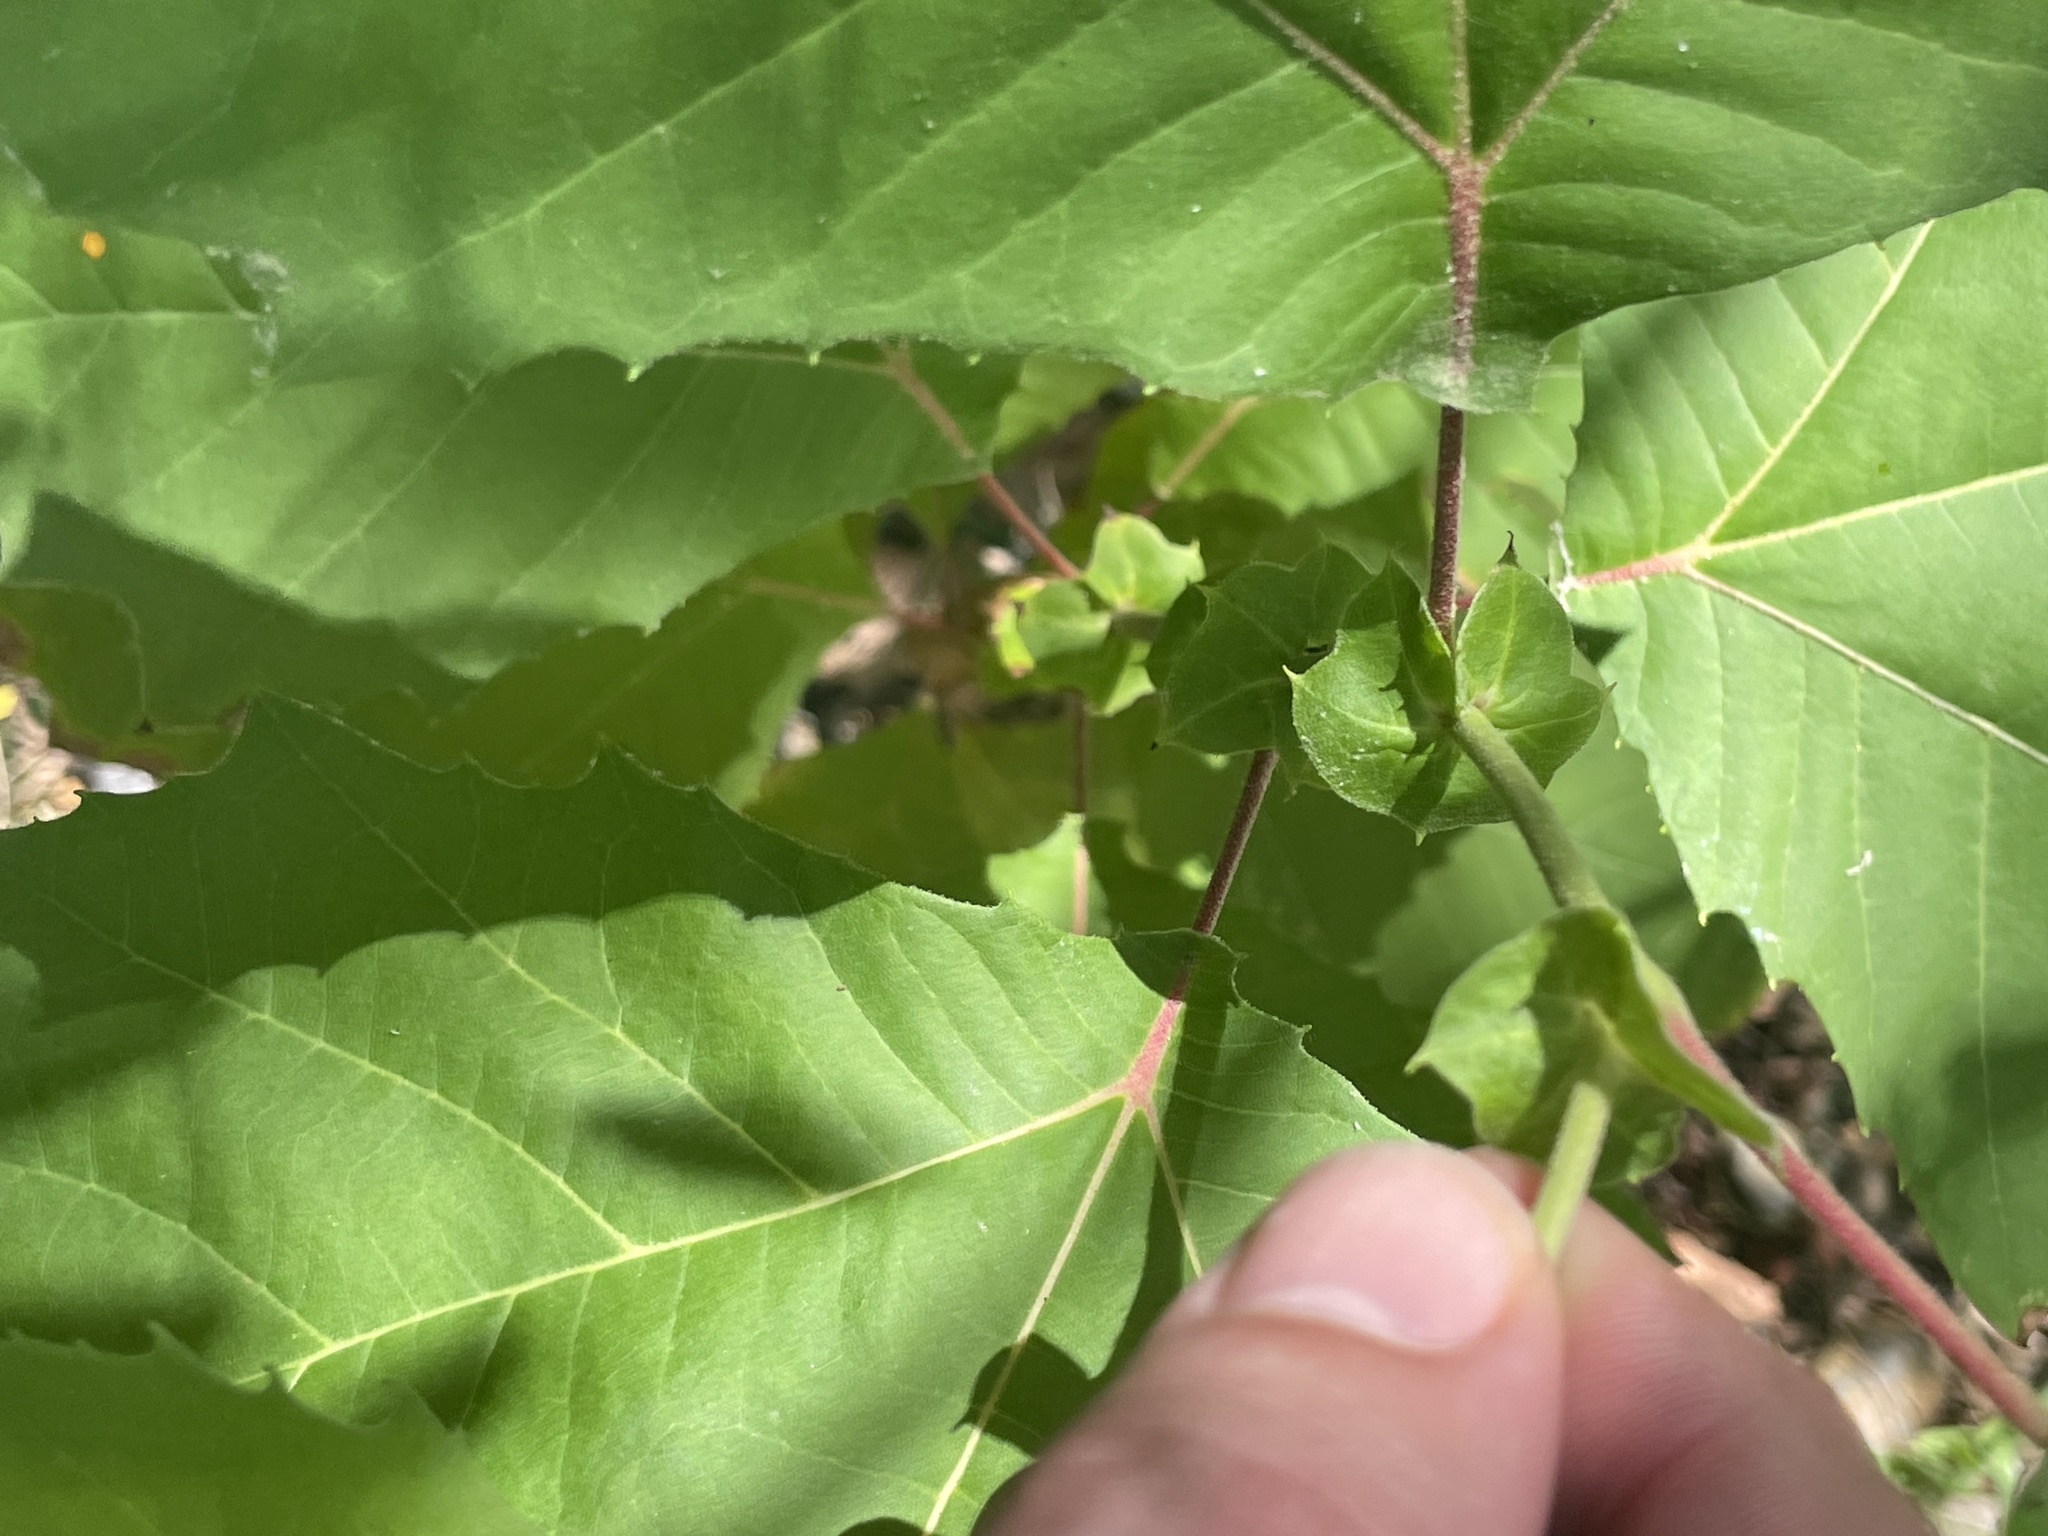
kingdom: Plantae
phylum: Tracheophyta
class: Magnoliopsida
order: Proteales
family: Platanaceae
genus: Platanus
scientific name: Platanus occidentalis
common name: American sycamore
